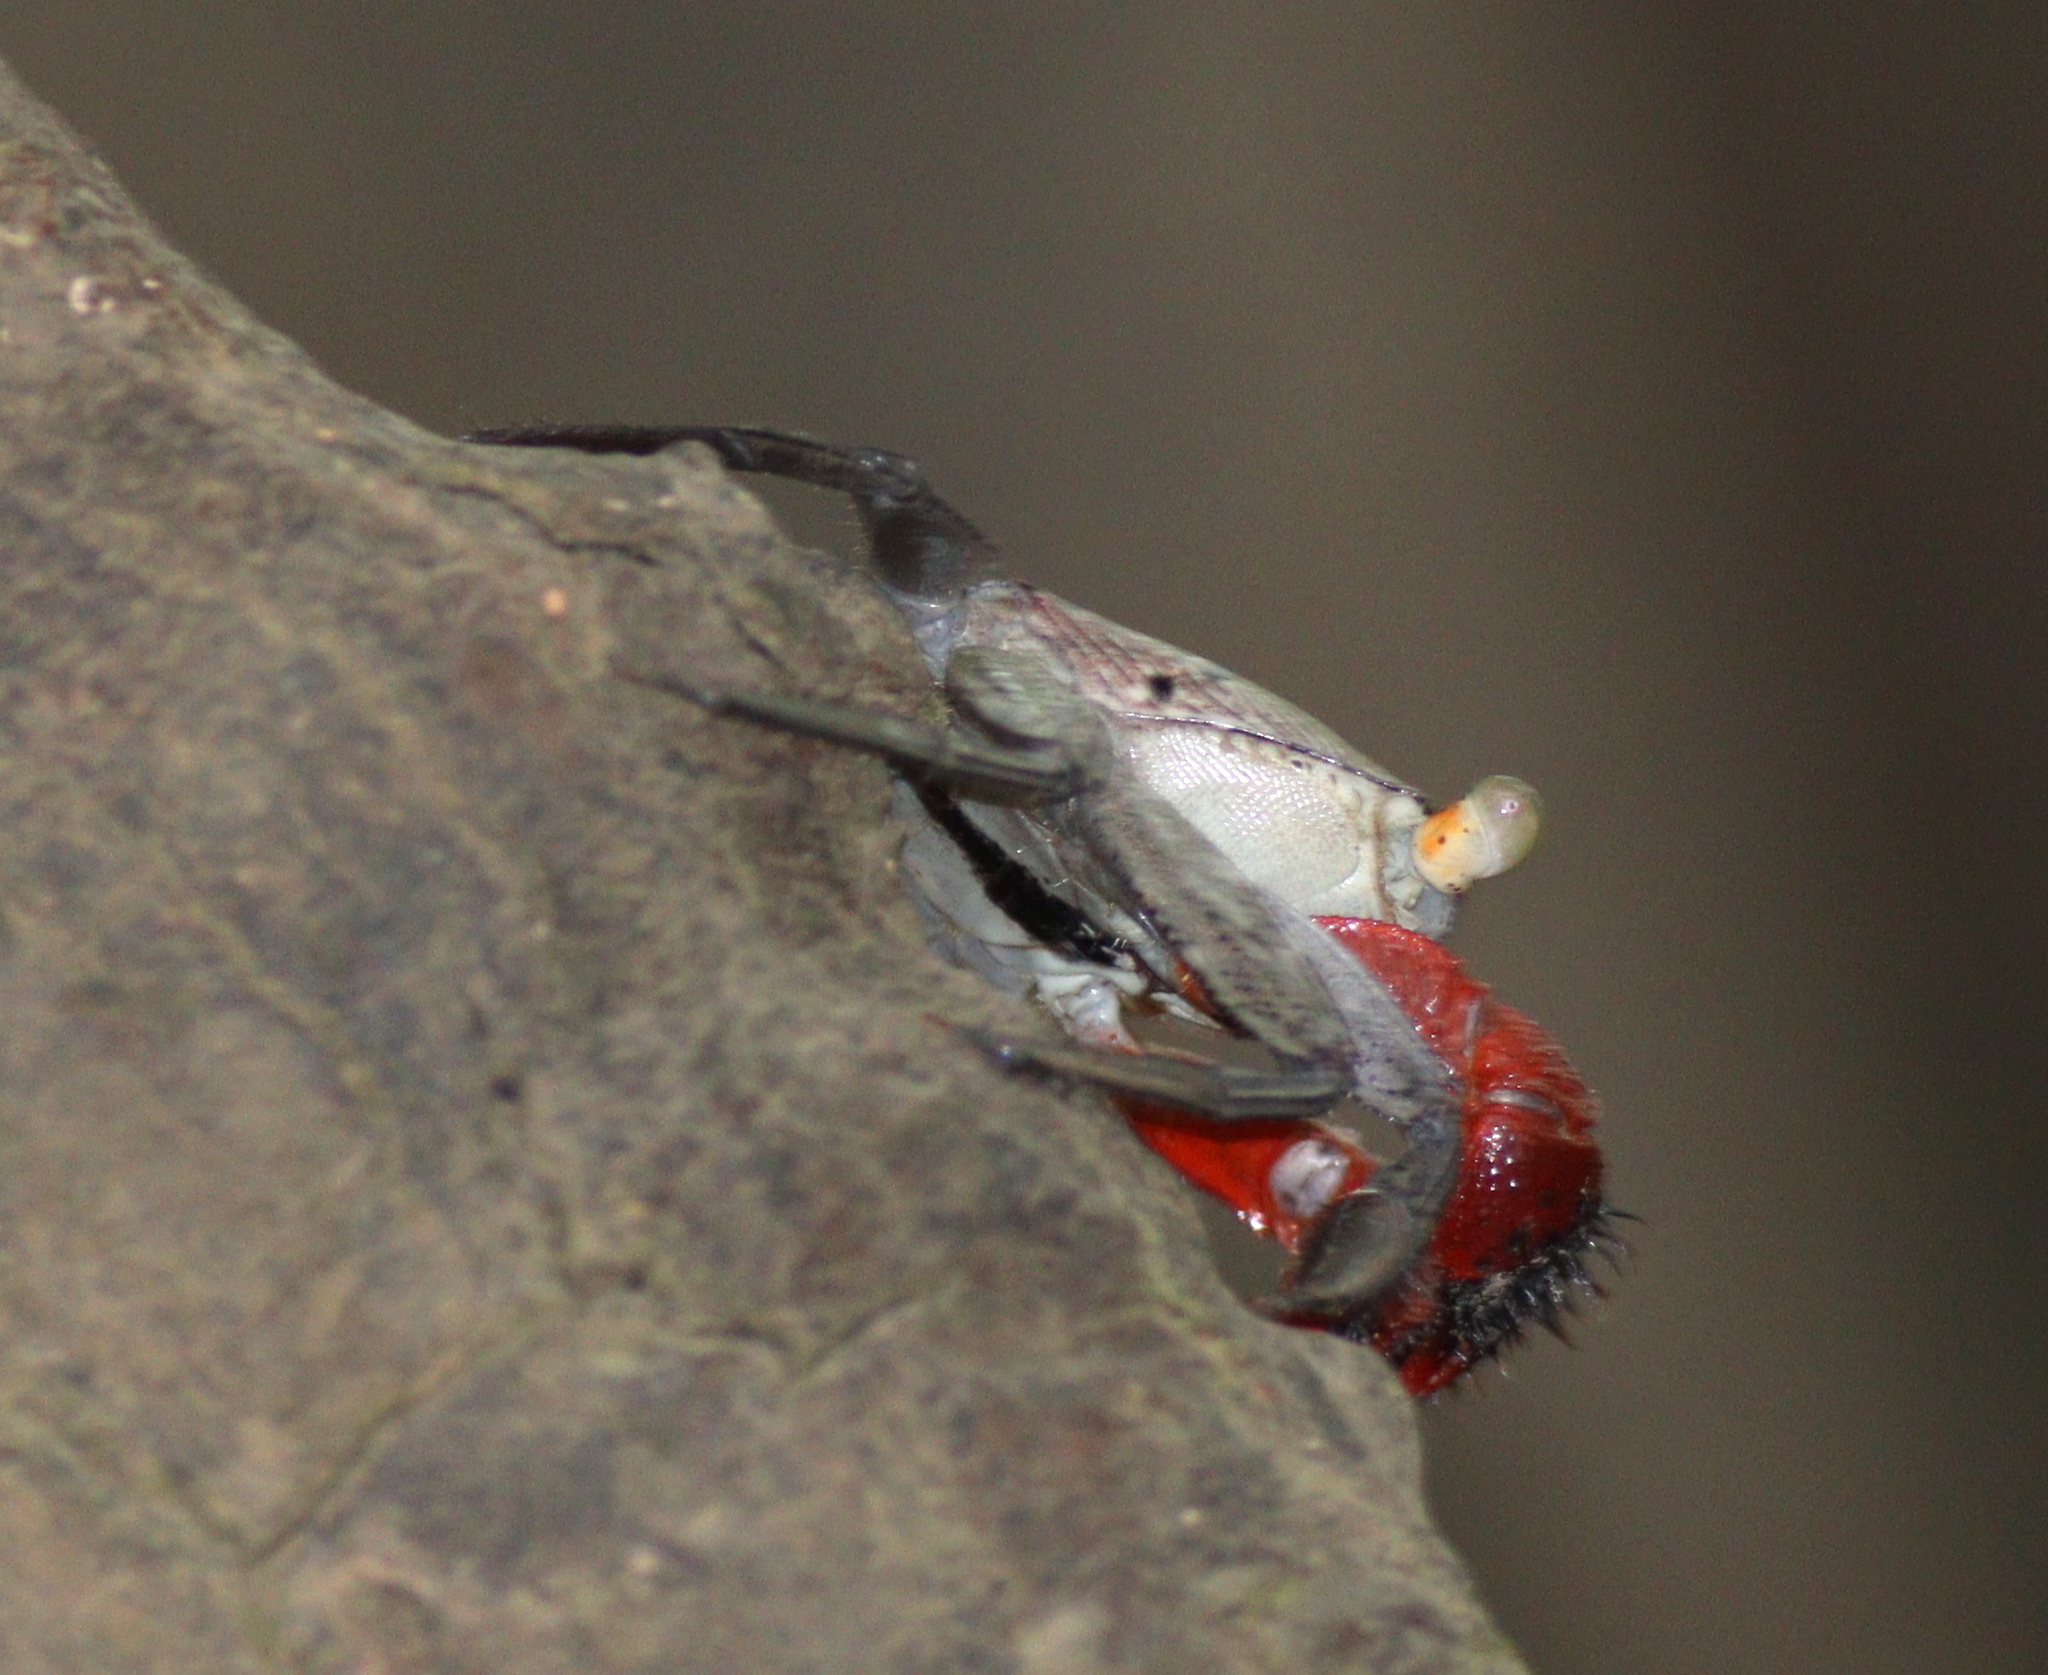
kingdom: Animalia
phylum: Arthropoda
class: Malacostraca
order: Decapoda
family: Sesarmidae
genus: Aratus
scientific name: Aratus pacificus
